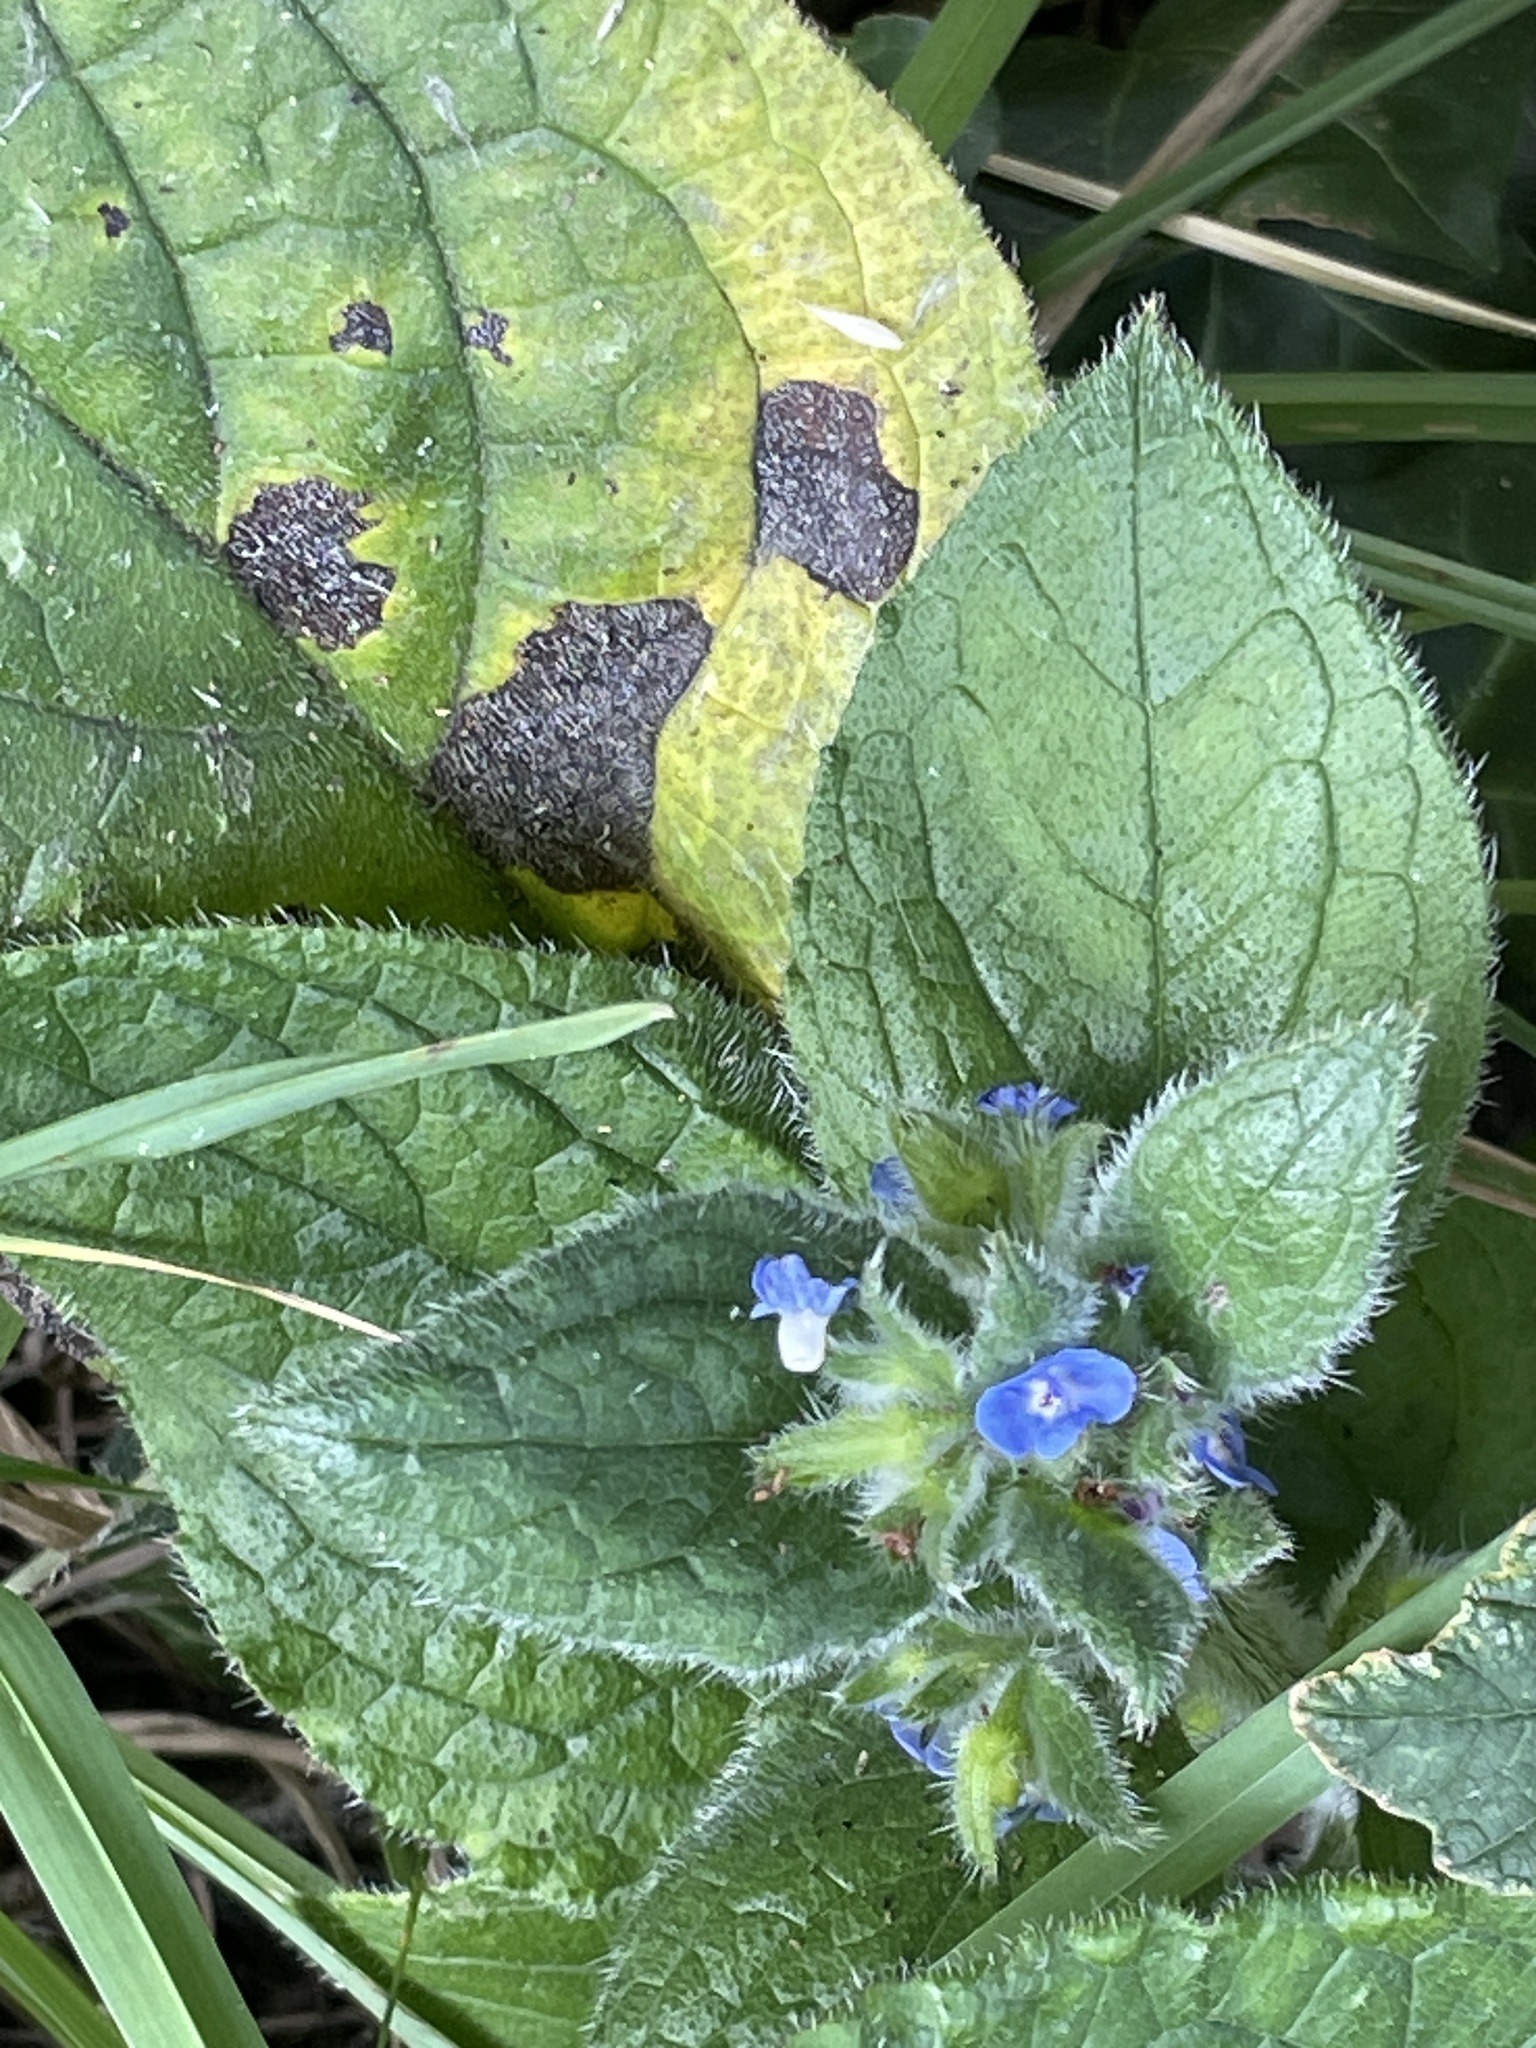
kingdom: Plantae
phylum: Tracheophyta
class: Magnoliopsida
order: Boraginales
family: Boraginaceae
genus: Pentaglottis
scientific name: Pentaglottis sempervirens
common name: Green alkanet
